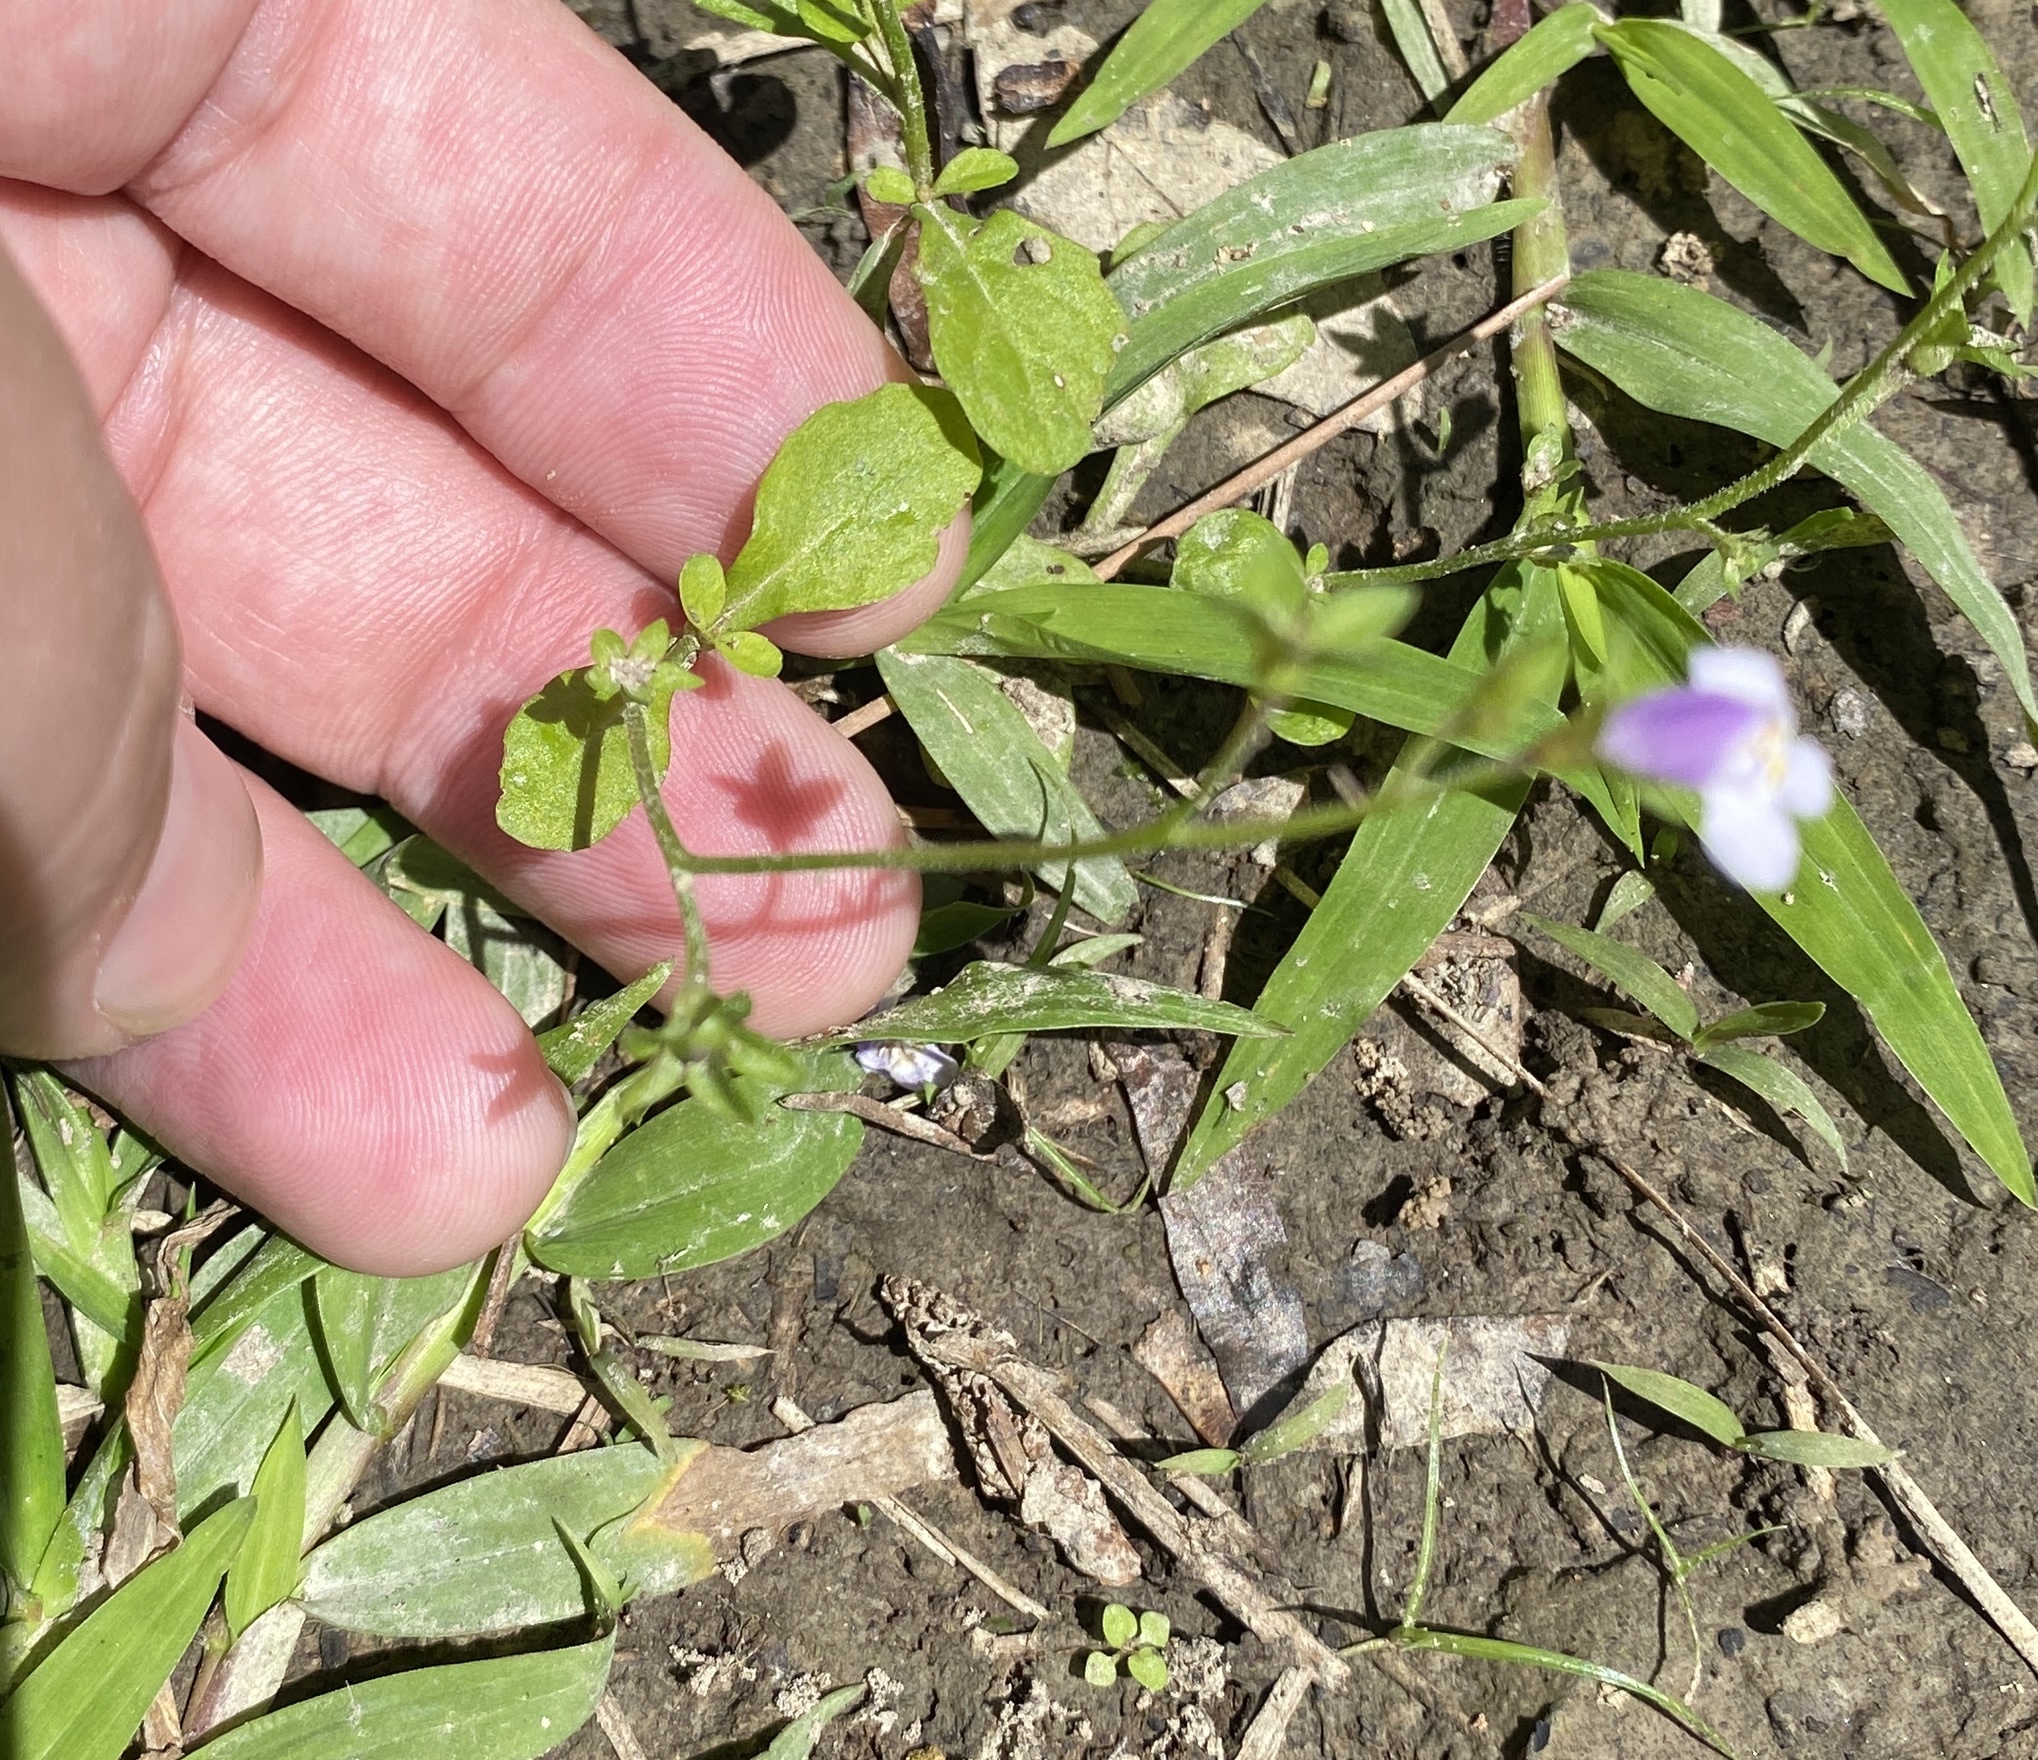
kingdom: Plantae
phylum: Tracheophyta
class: Magnoliopsida
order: Lamiales
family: Mazaceae
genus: Mazus
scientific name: Mazus pumilus
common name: Japanese mazus
